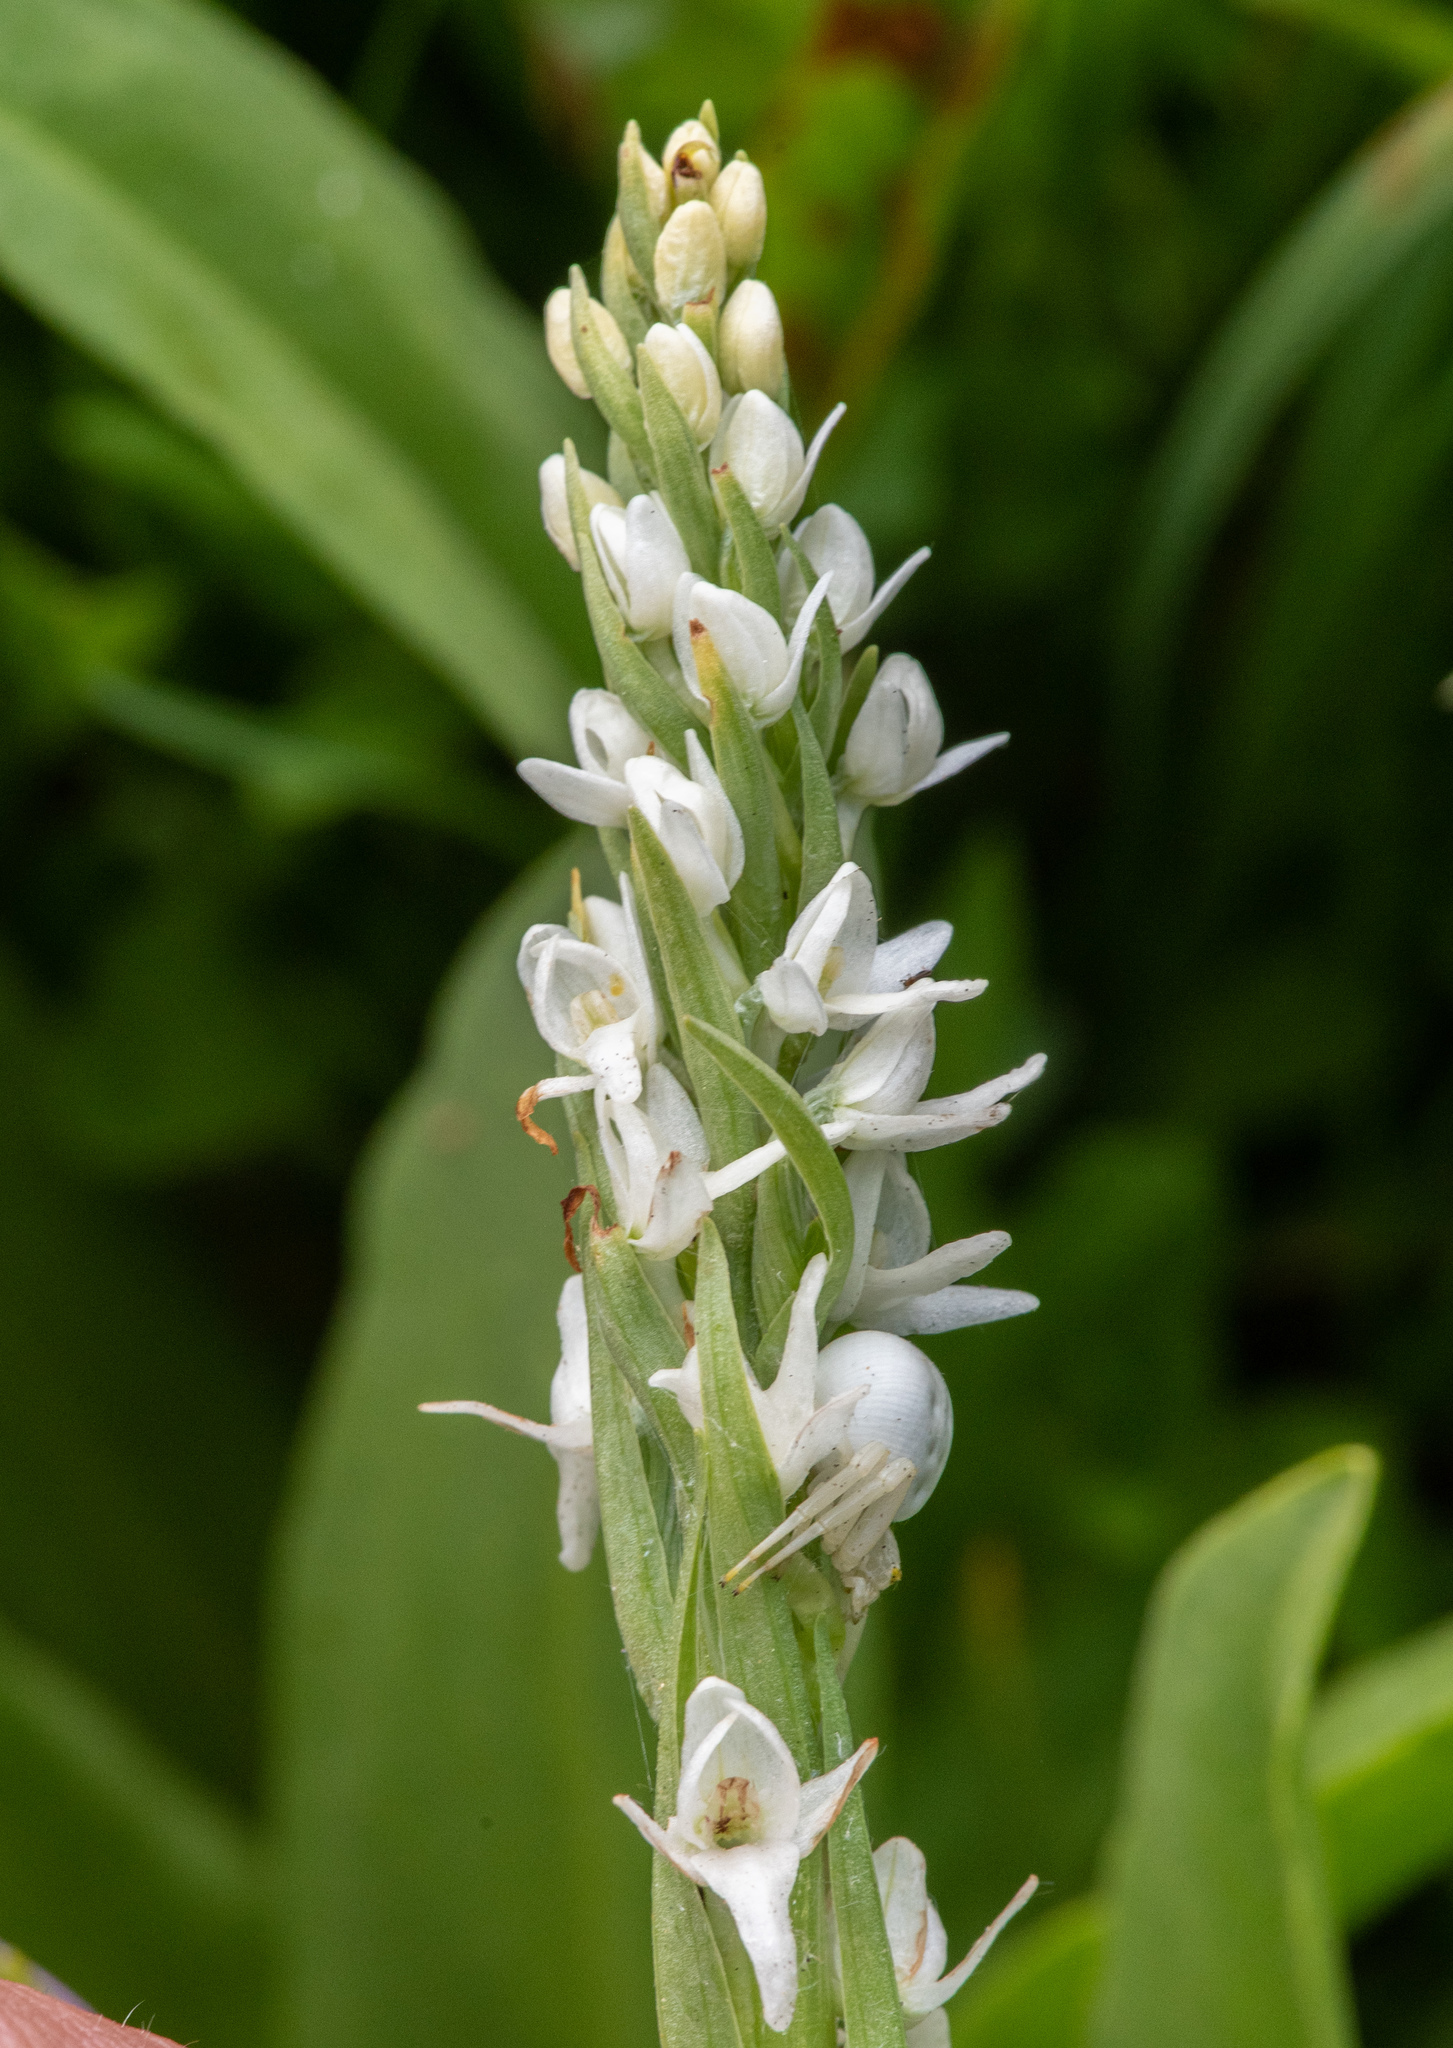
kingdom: Plantae
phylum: Tracheophyta
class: Liliopsida
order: Asparagales
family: Orchidaceae
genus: Platanthera
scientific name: Platanthera dilatata
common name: Bog candles
